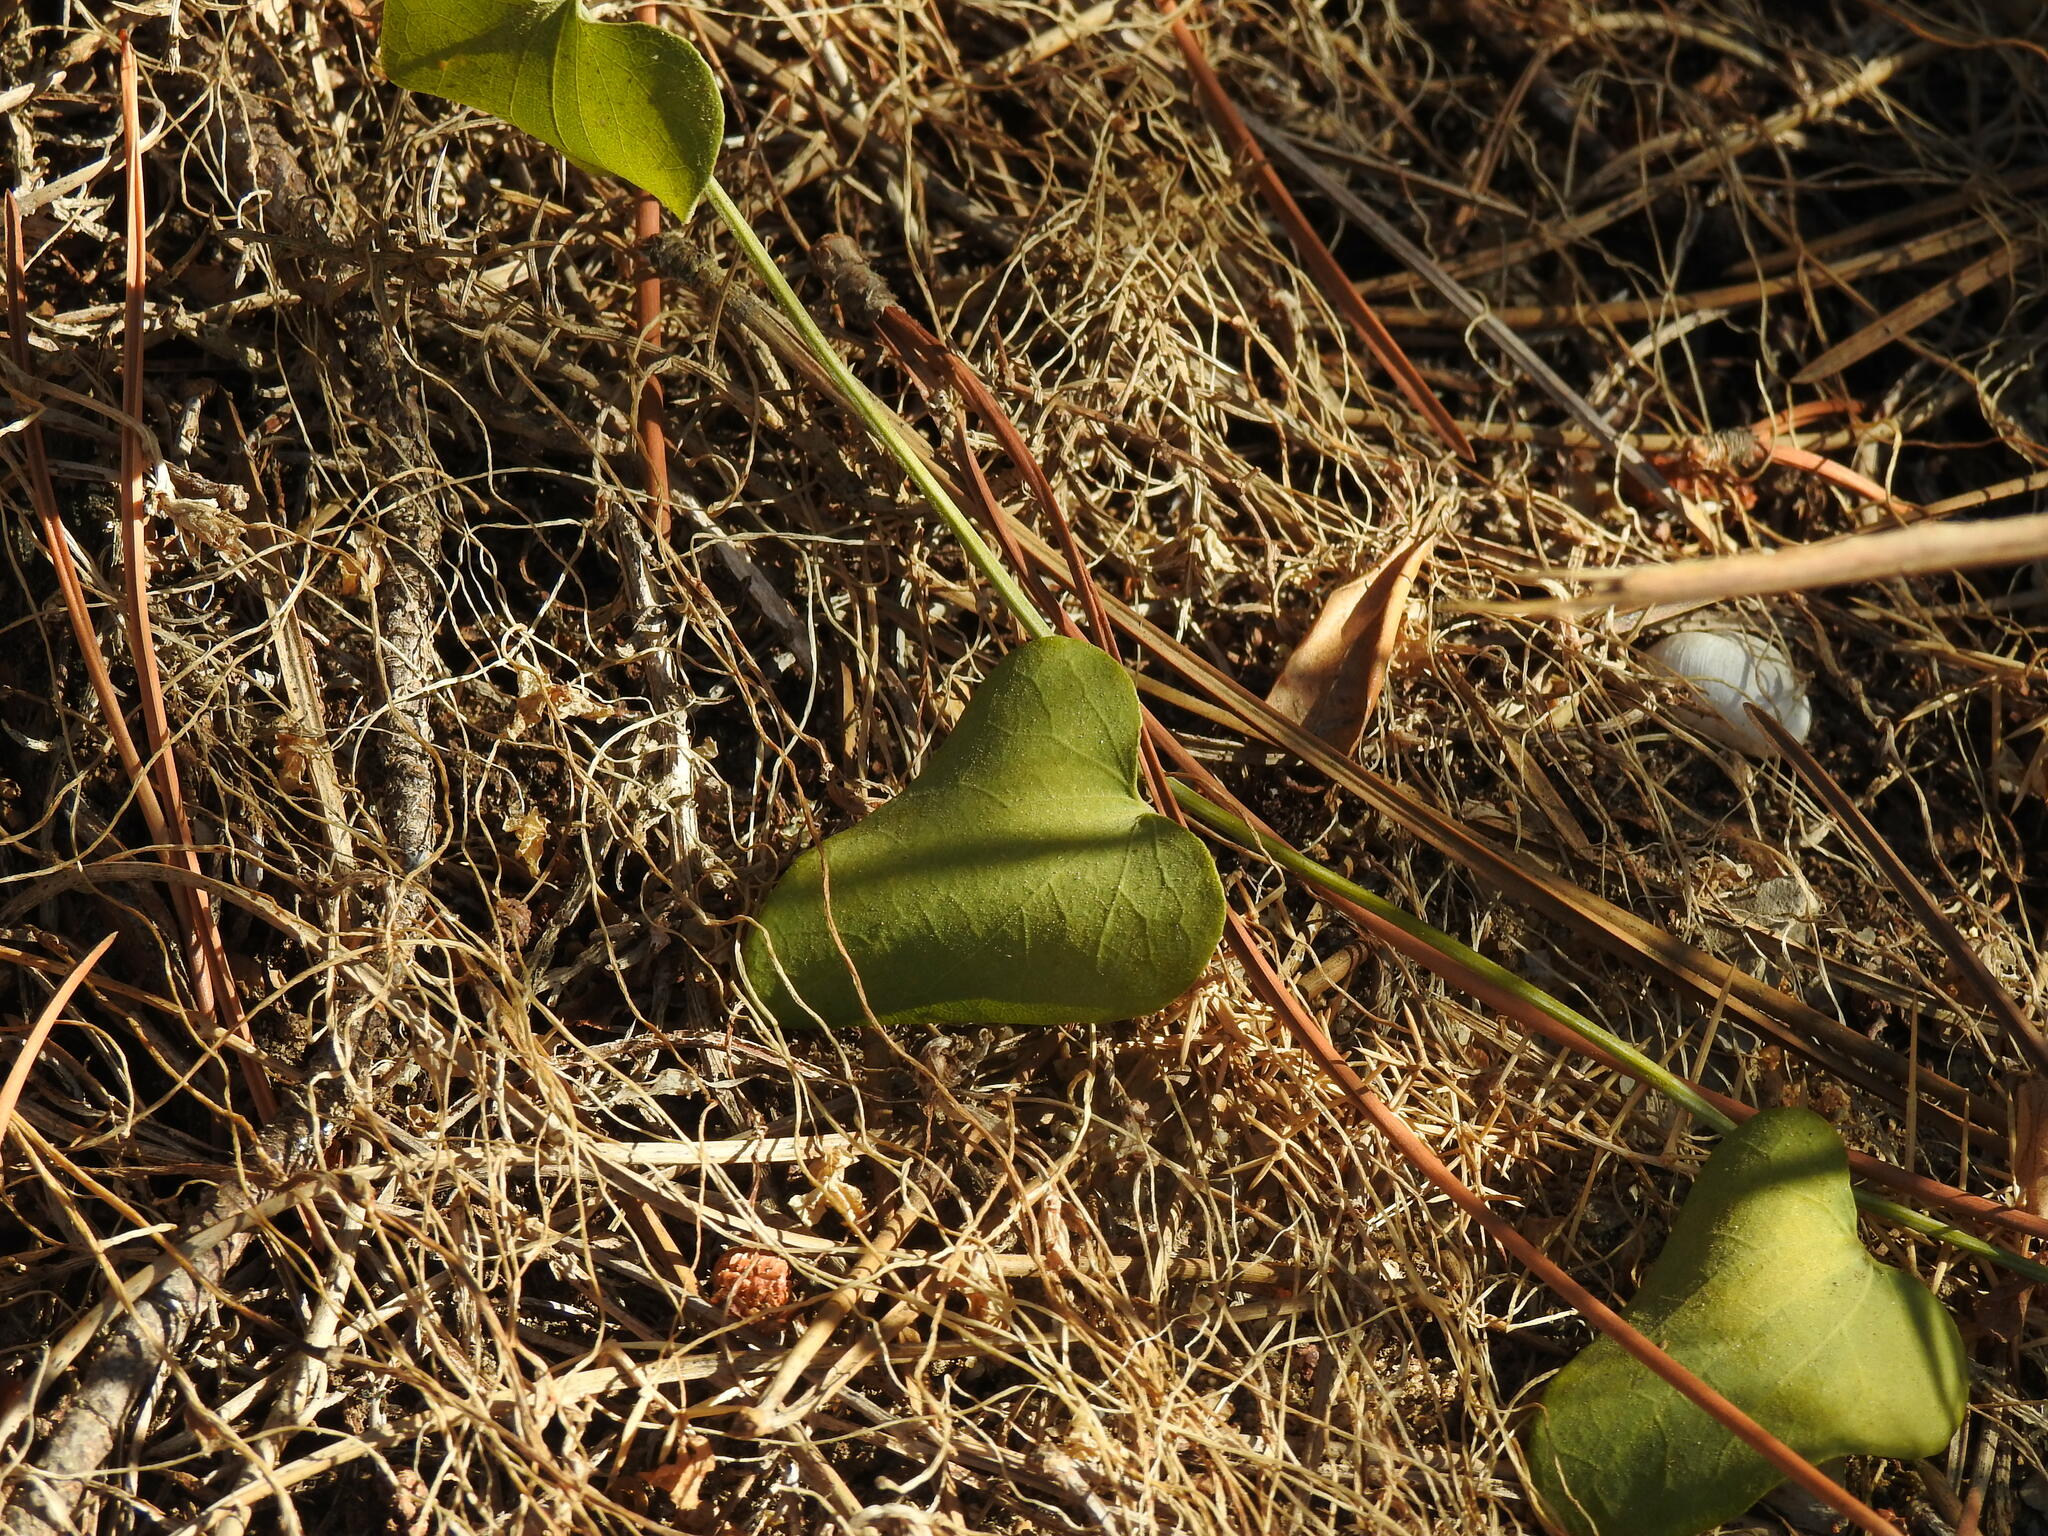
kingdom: Plantae
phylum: Tracheophyta
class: Magnoliopsida
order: Piperales
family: Aristolochiaceae
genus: Aristolochia
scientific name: Aristolochia baetica
